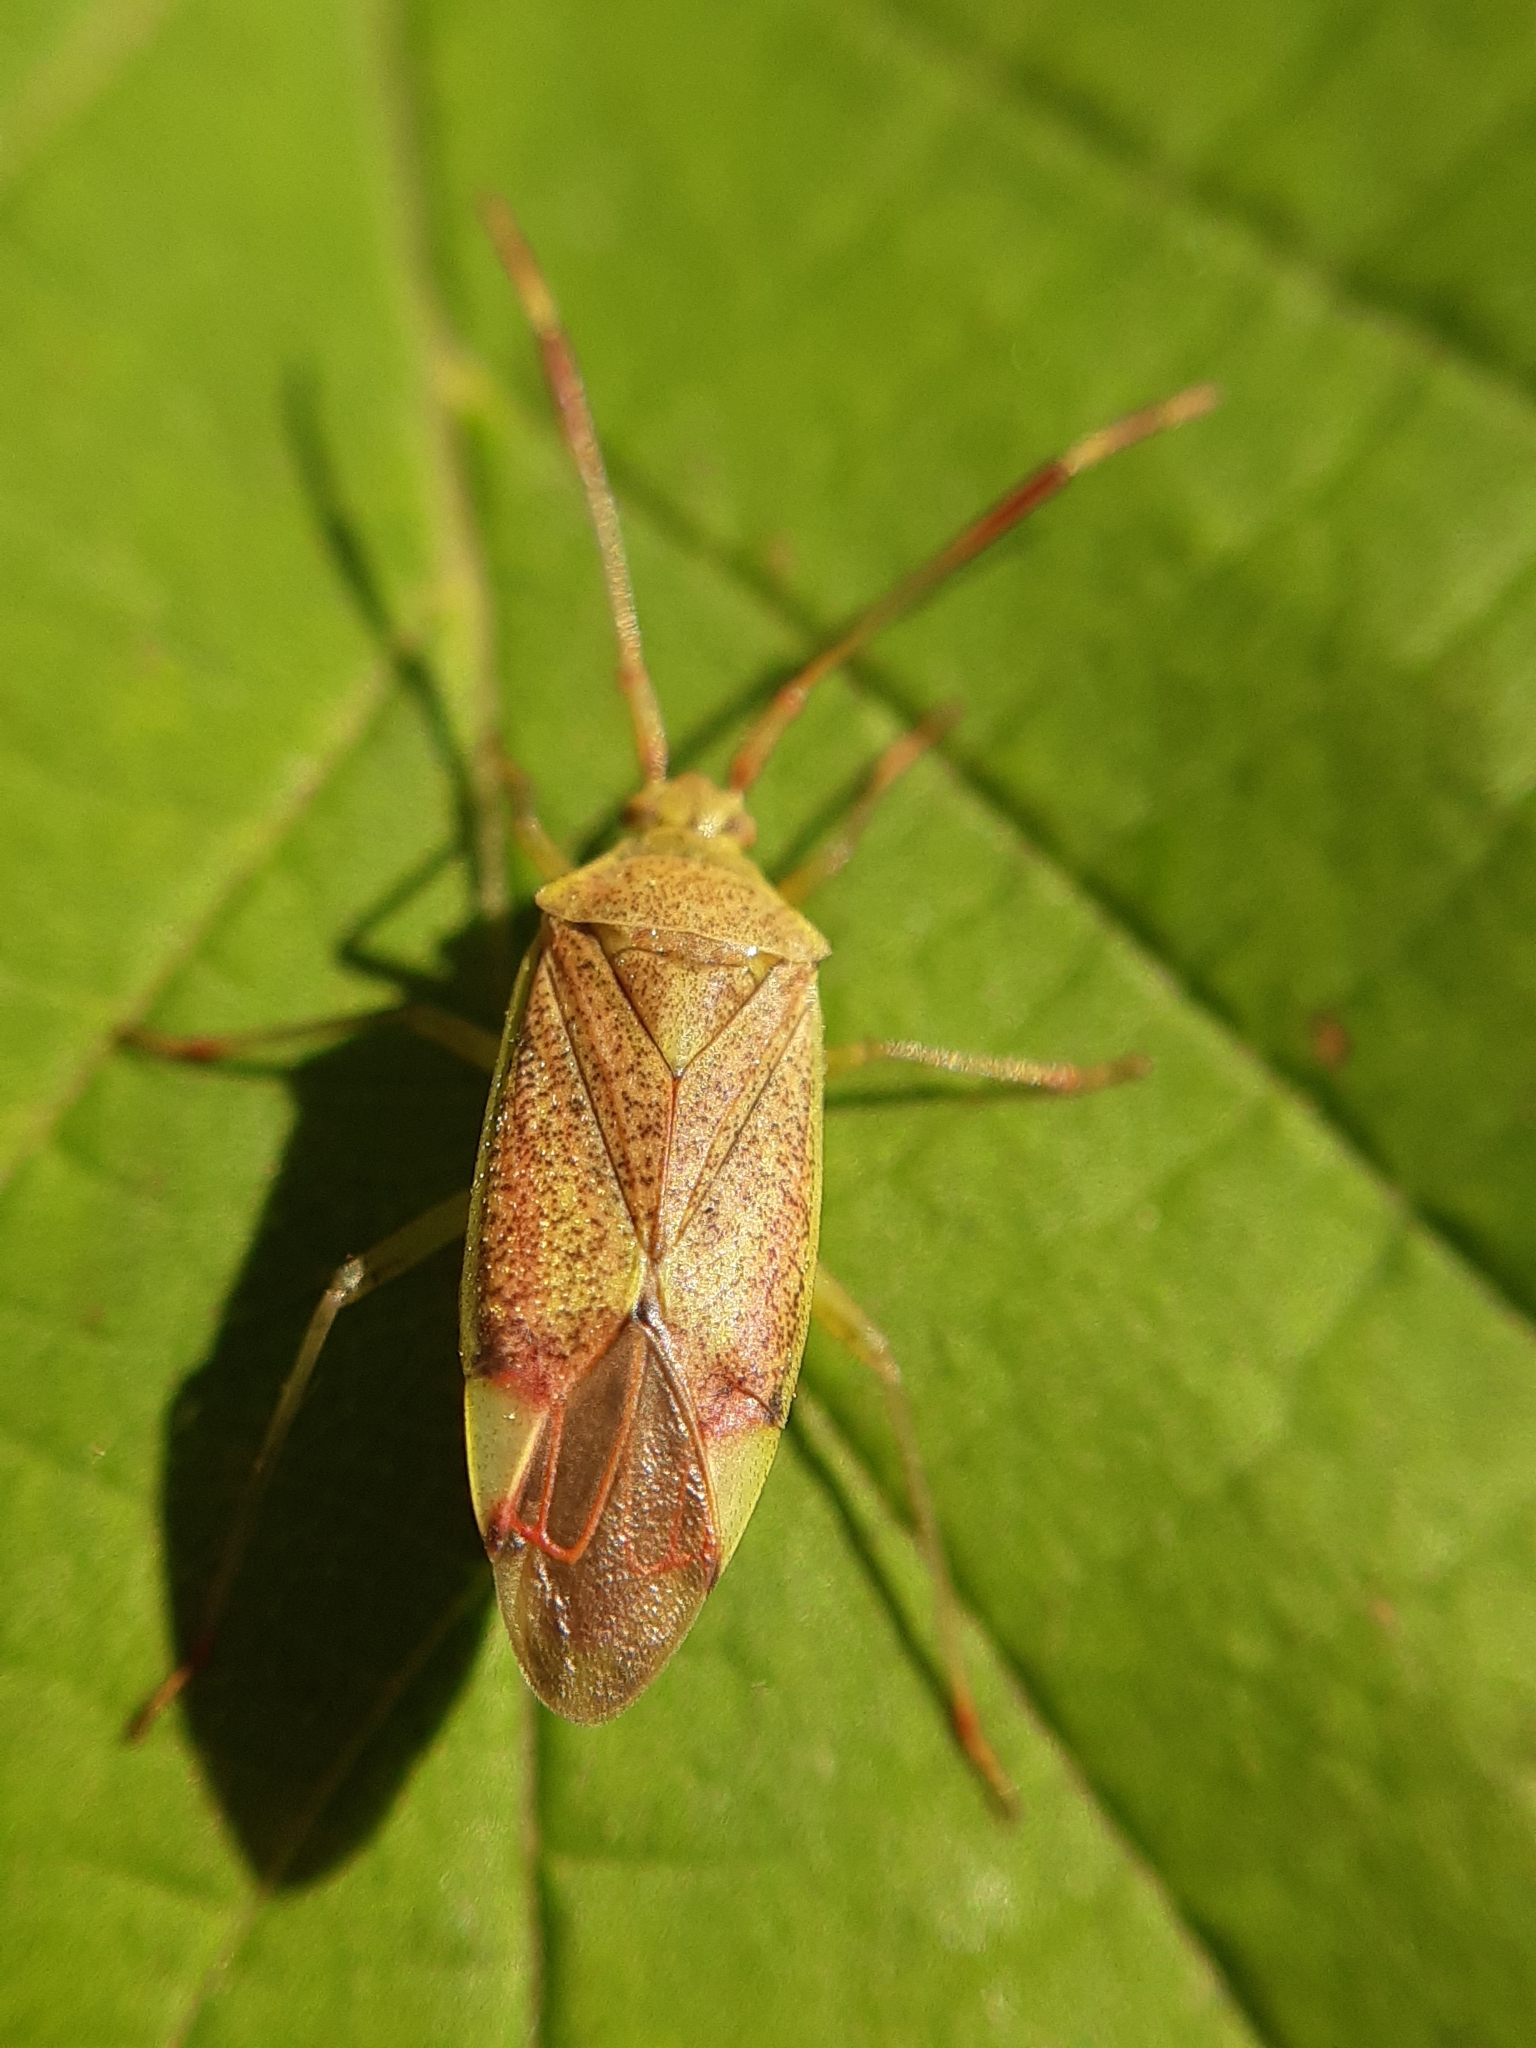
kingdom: Animalia
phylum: Arthropoda
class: Insecta
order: Hemiptera
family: Miridae
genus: Pantilius
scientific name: Pantilius tunicatus
